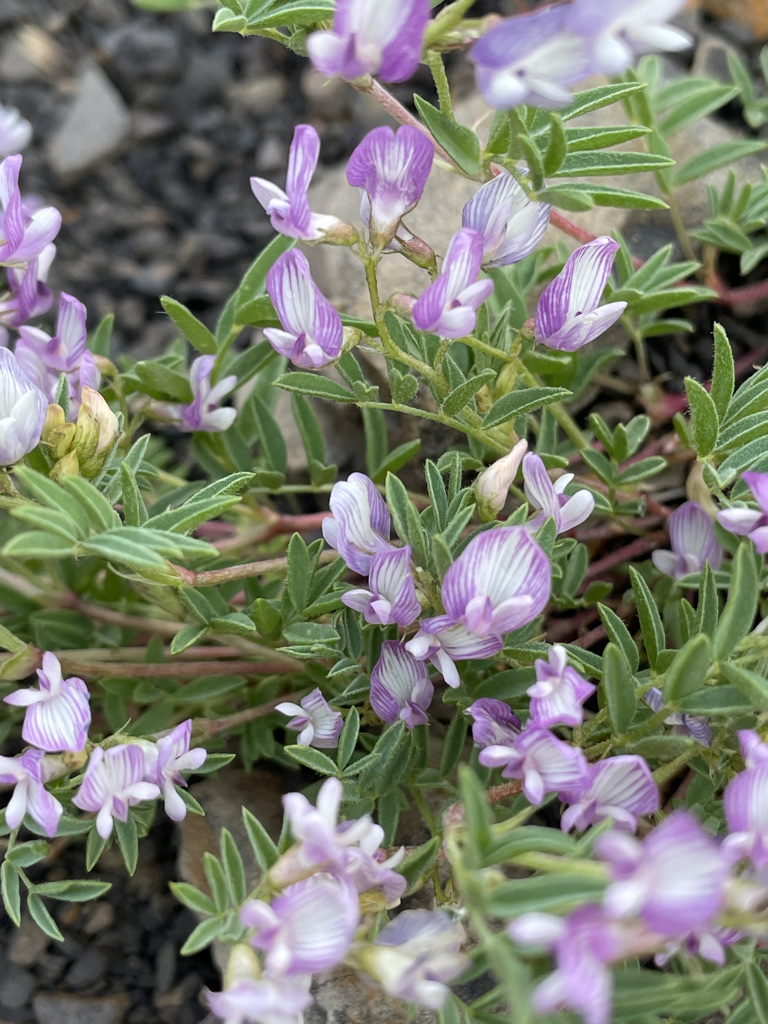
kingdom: Plantae
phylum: Tracheophyta
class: Magnoliopsida
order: Fabales
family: Fabaceae
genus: Astragalus
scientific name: Astragalus vexilliflexus
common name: Bent-flowered milk-vetch
